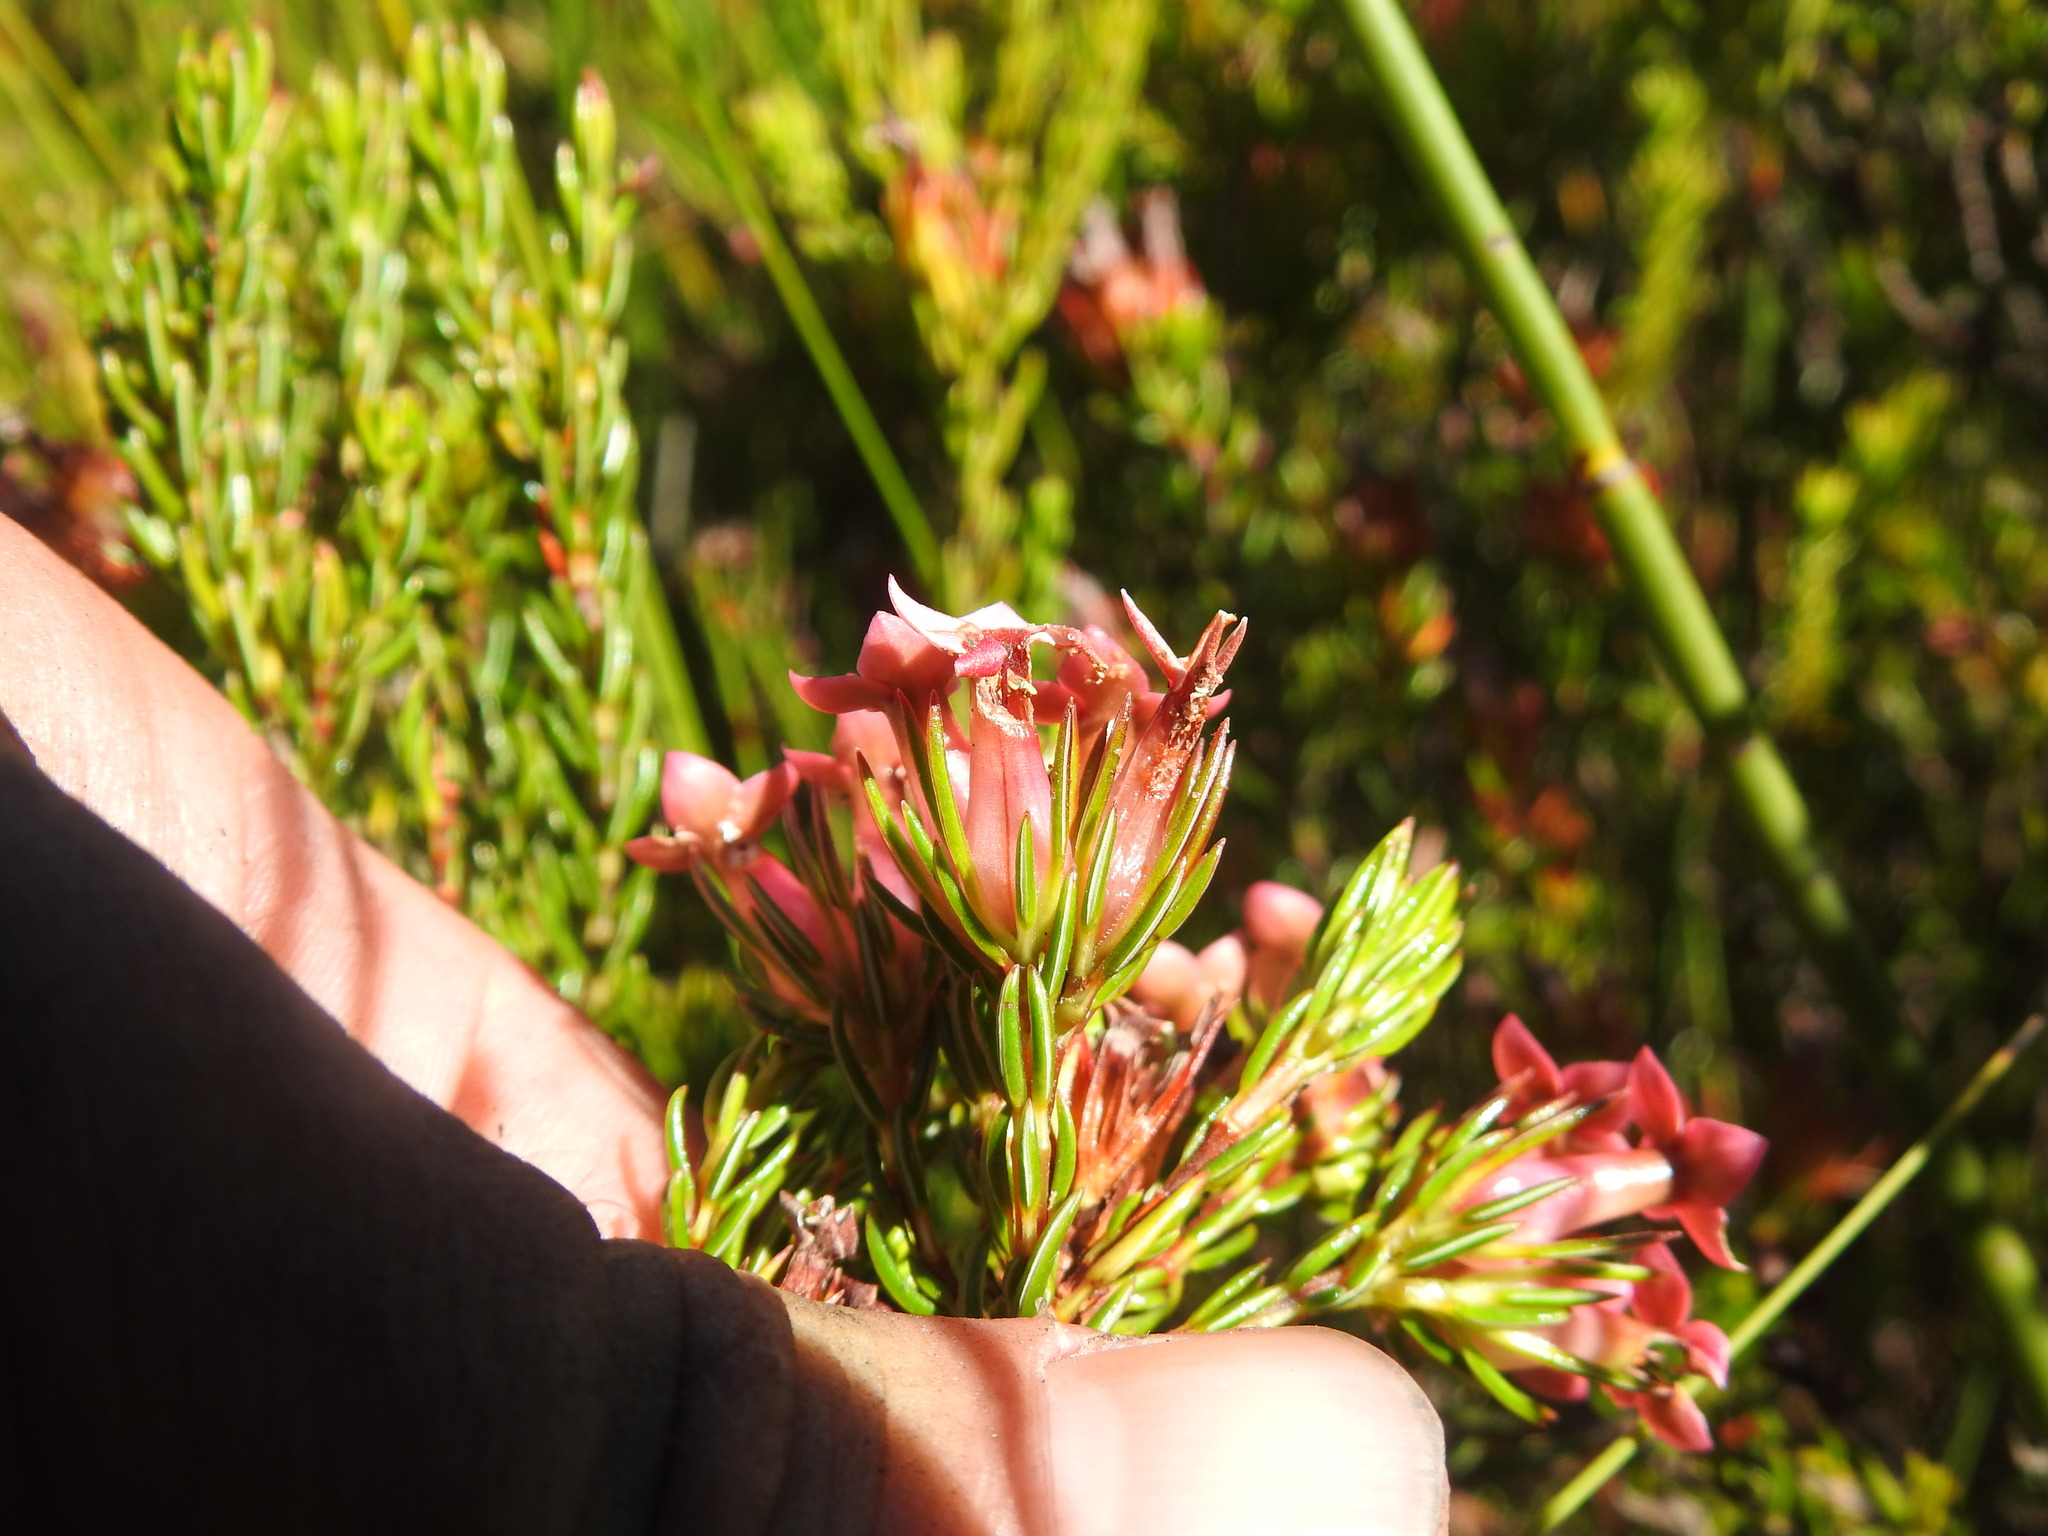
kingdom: Plantae
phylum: Tracheophyta
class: Magnoliopsida
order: Ericales
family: Ericaceae
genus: Erica
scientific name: Erica fastigiata
